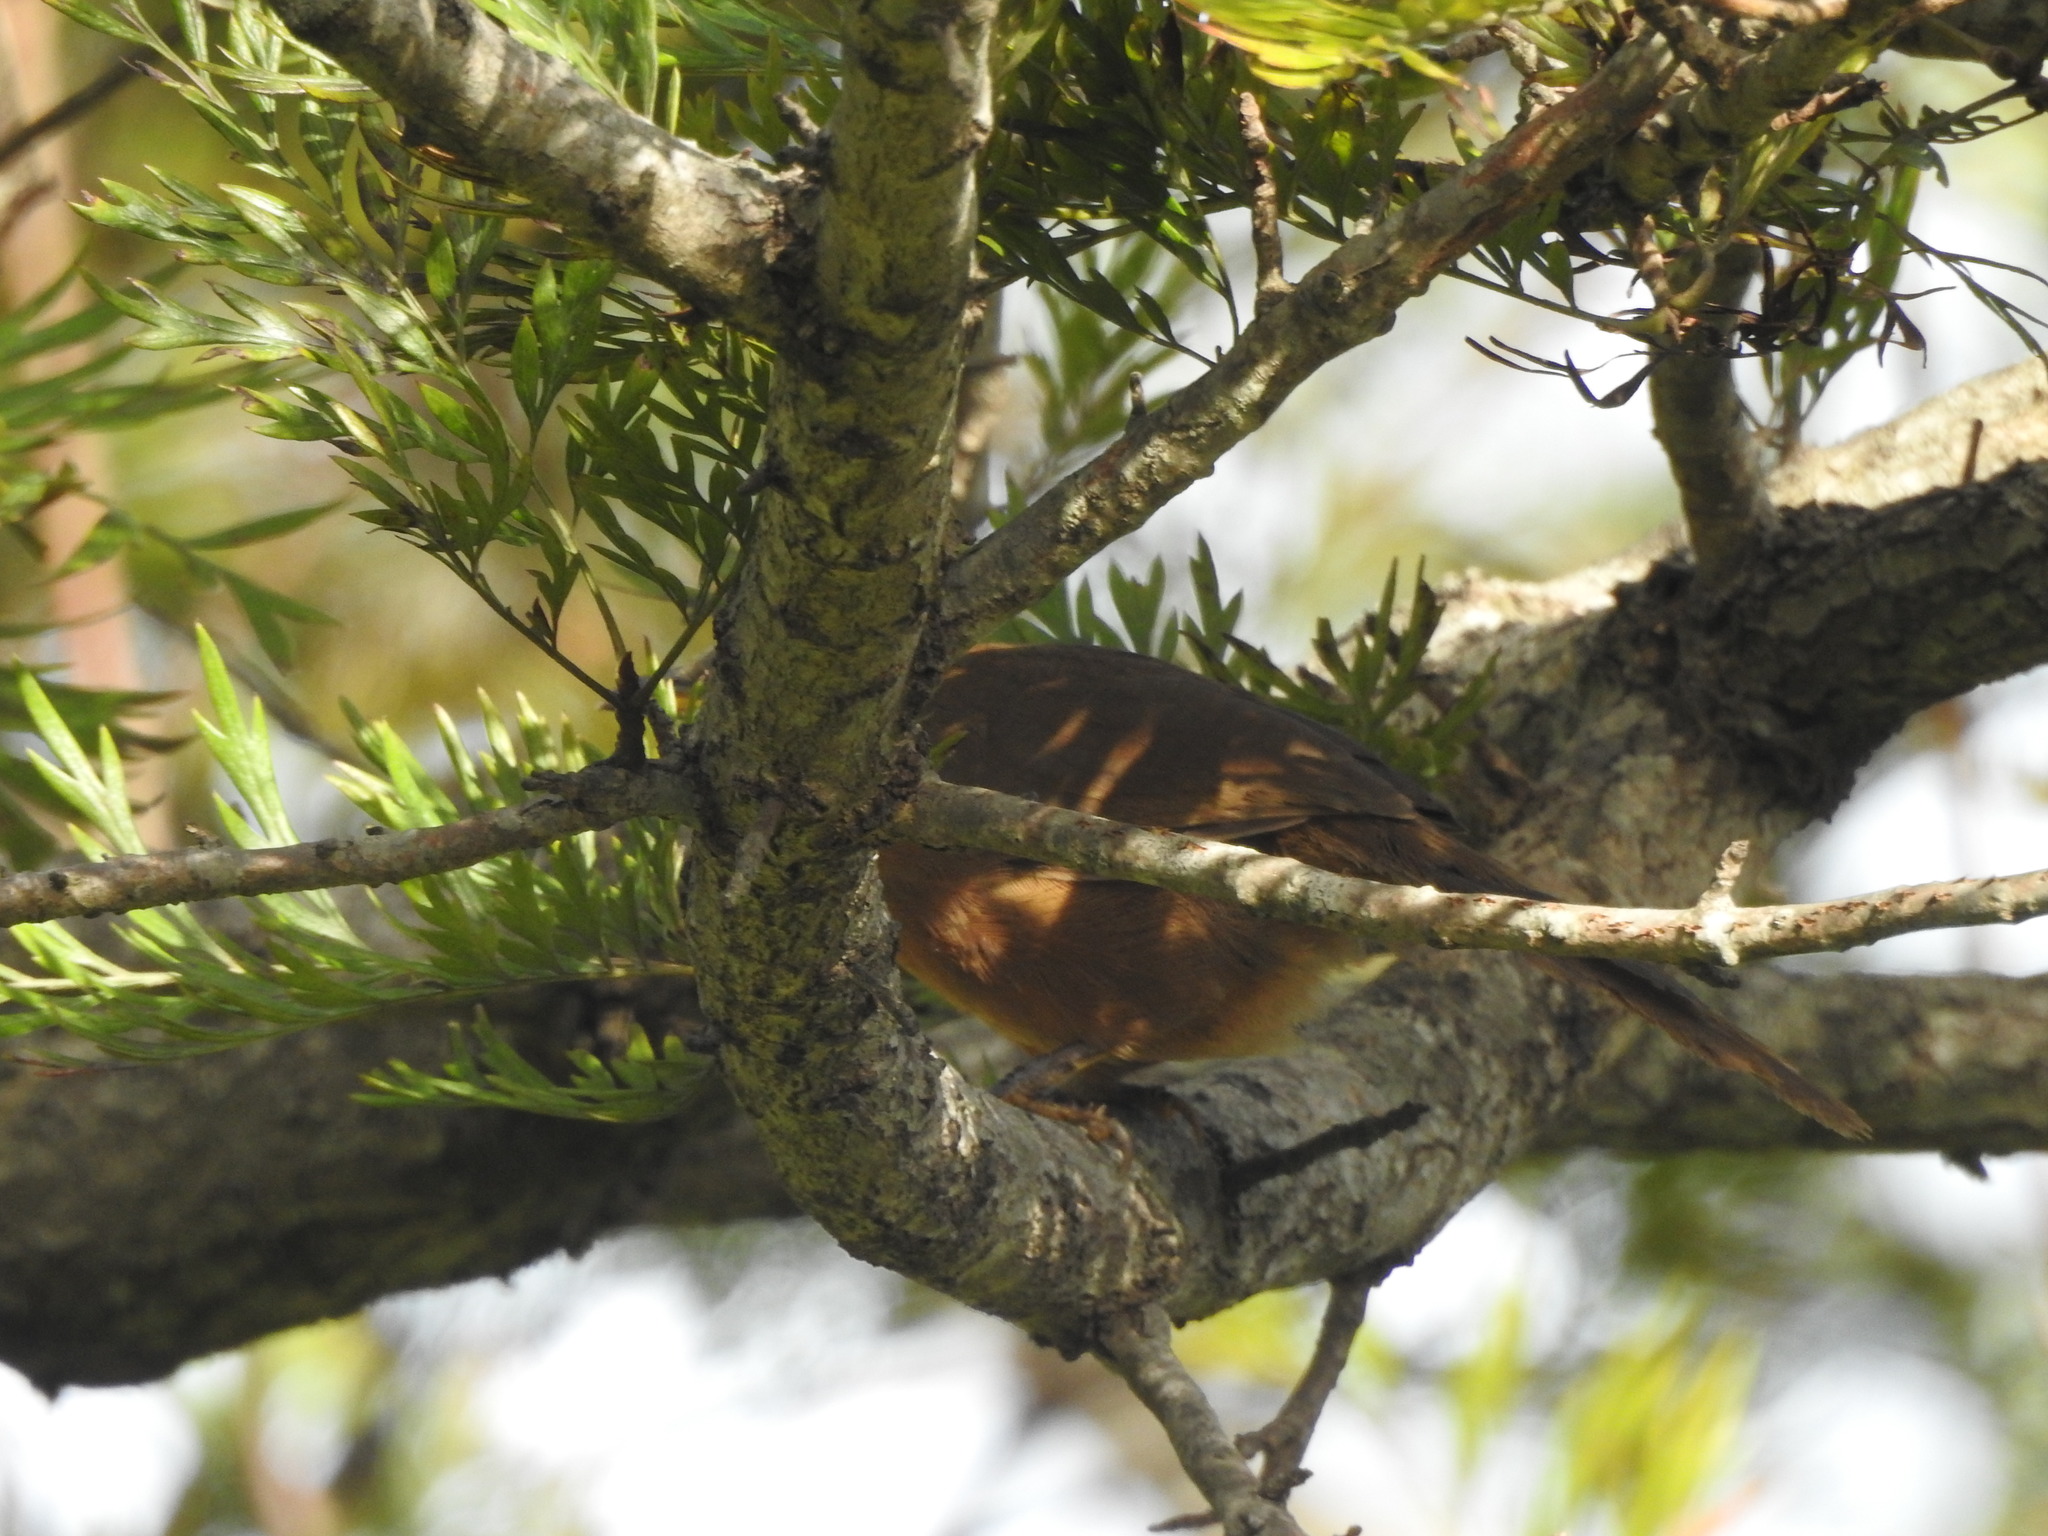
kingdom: Animalia
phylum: Chordata
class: Aves
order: Passeriformes
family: Leiothrichidae
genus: Turdoides
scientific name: Turdoides subrufa
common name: Rufous babbler
